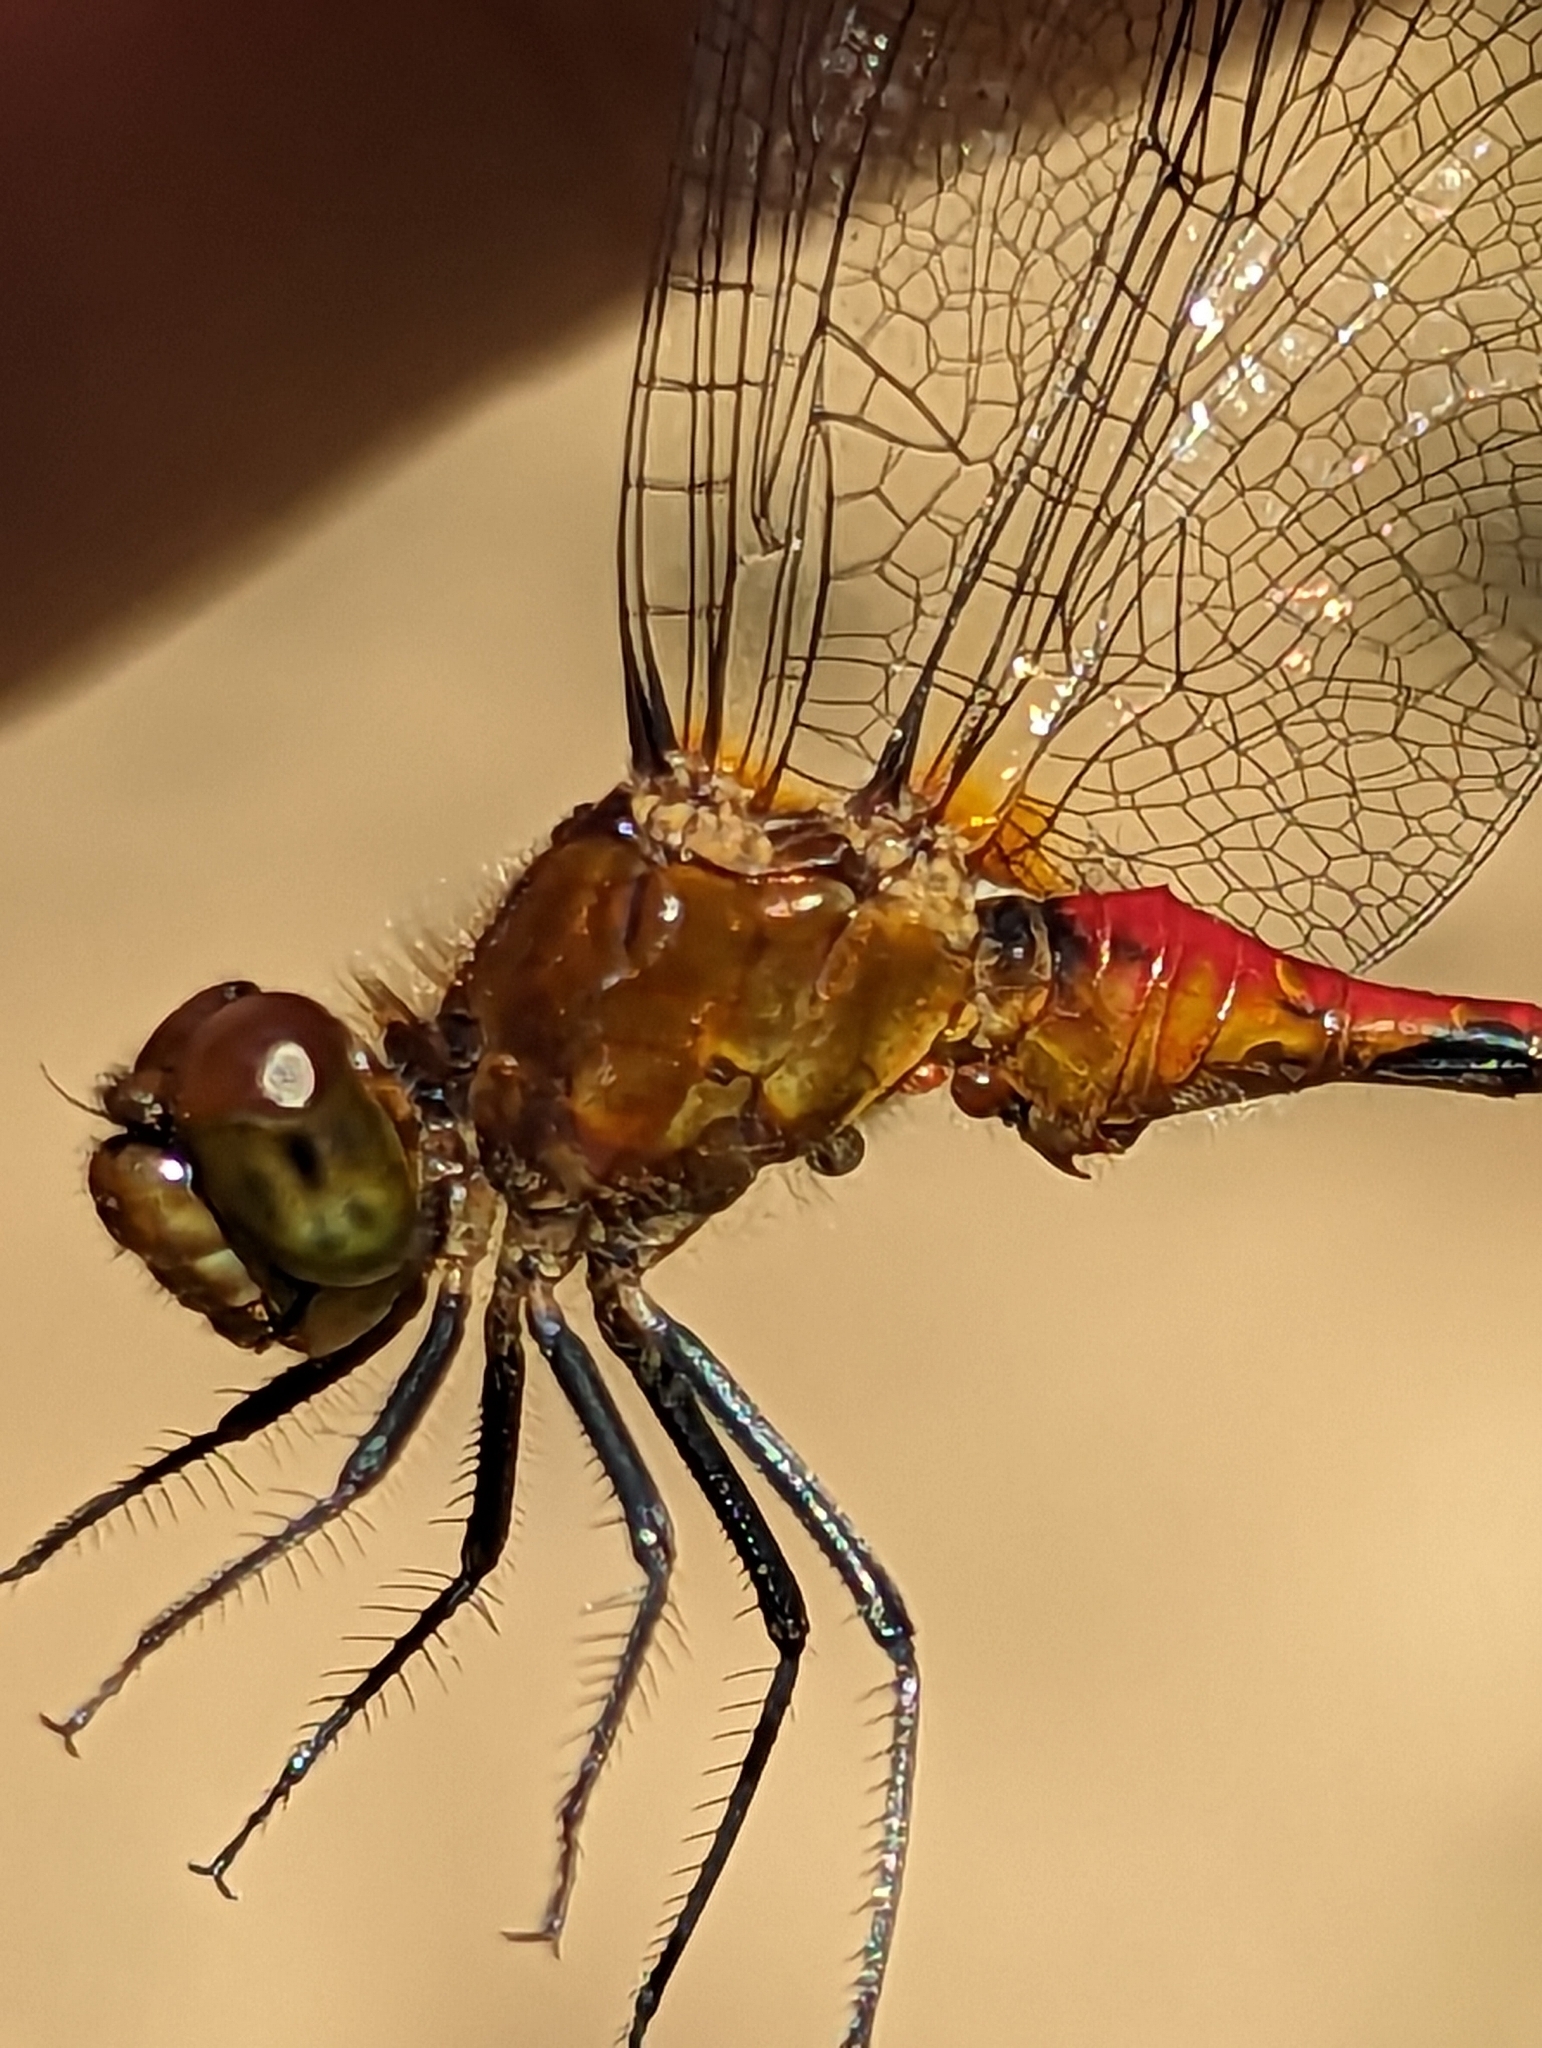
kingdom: Animalia
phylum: Arthropoda
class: Insecta
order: Odonata
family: Libellulidae
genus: Sympetrum
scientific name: Sympetrum rubicundulum
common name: Ruby meadowhawk
